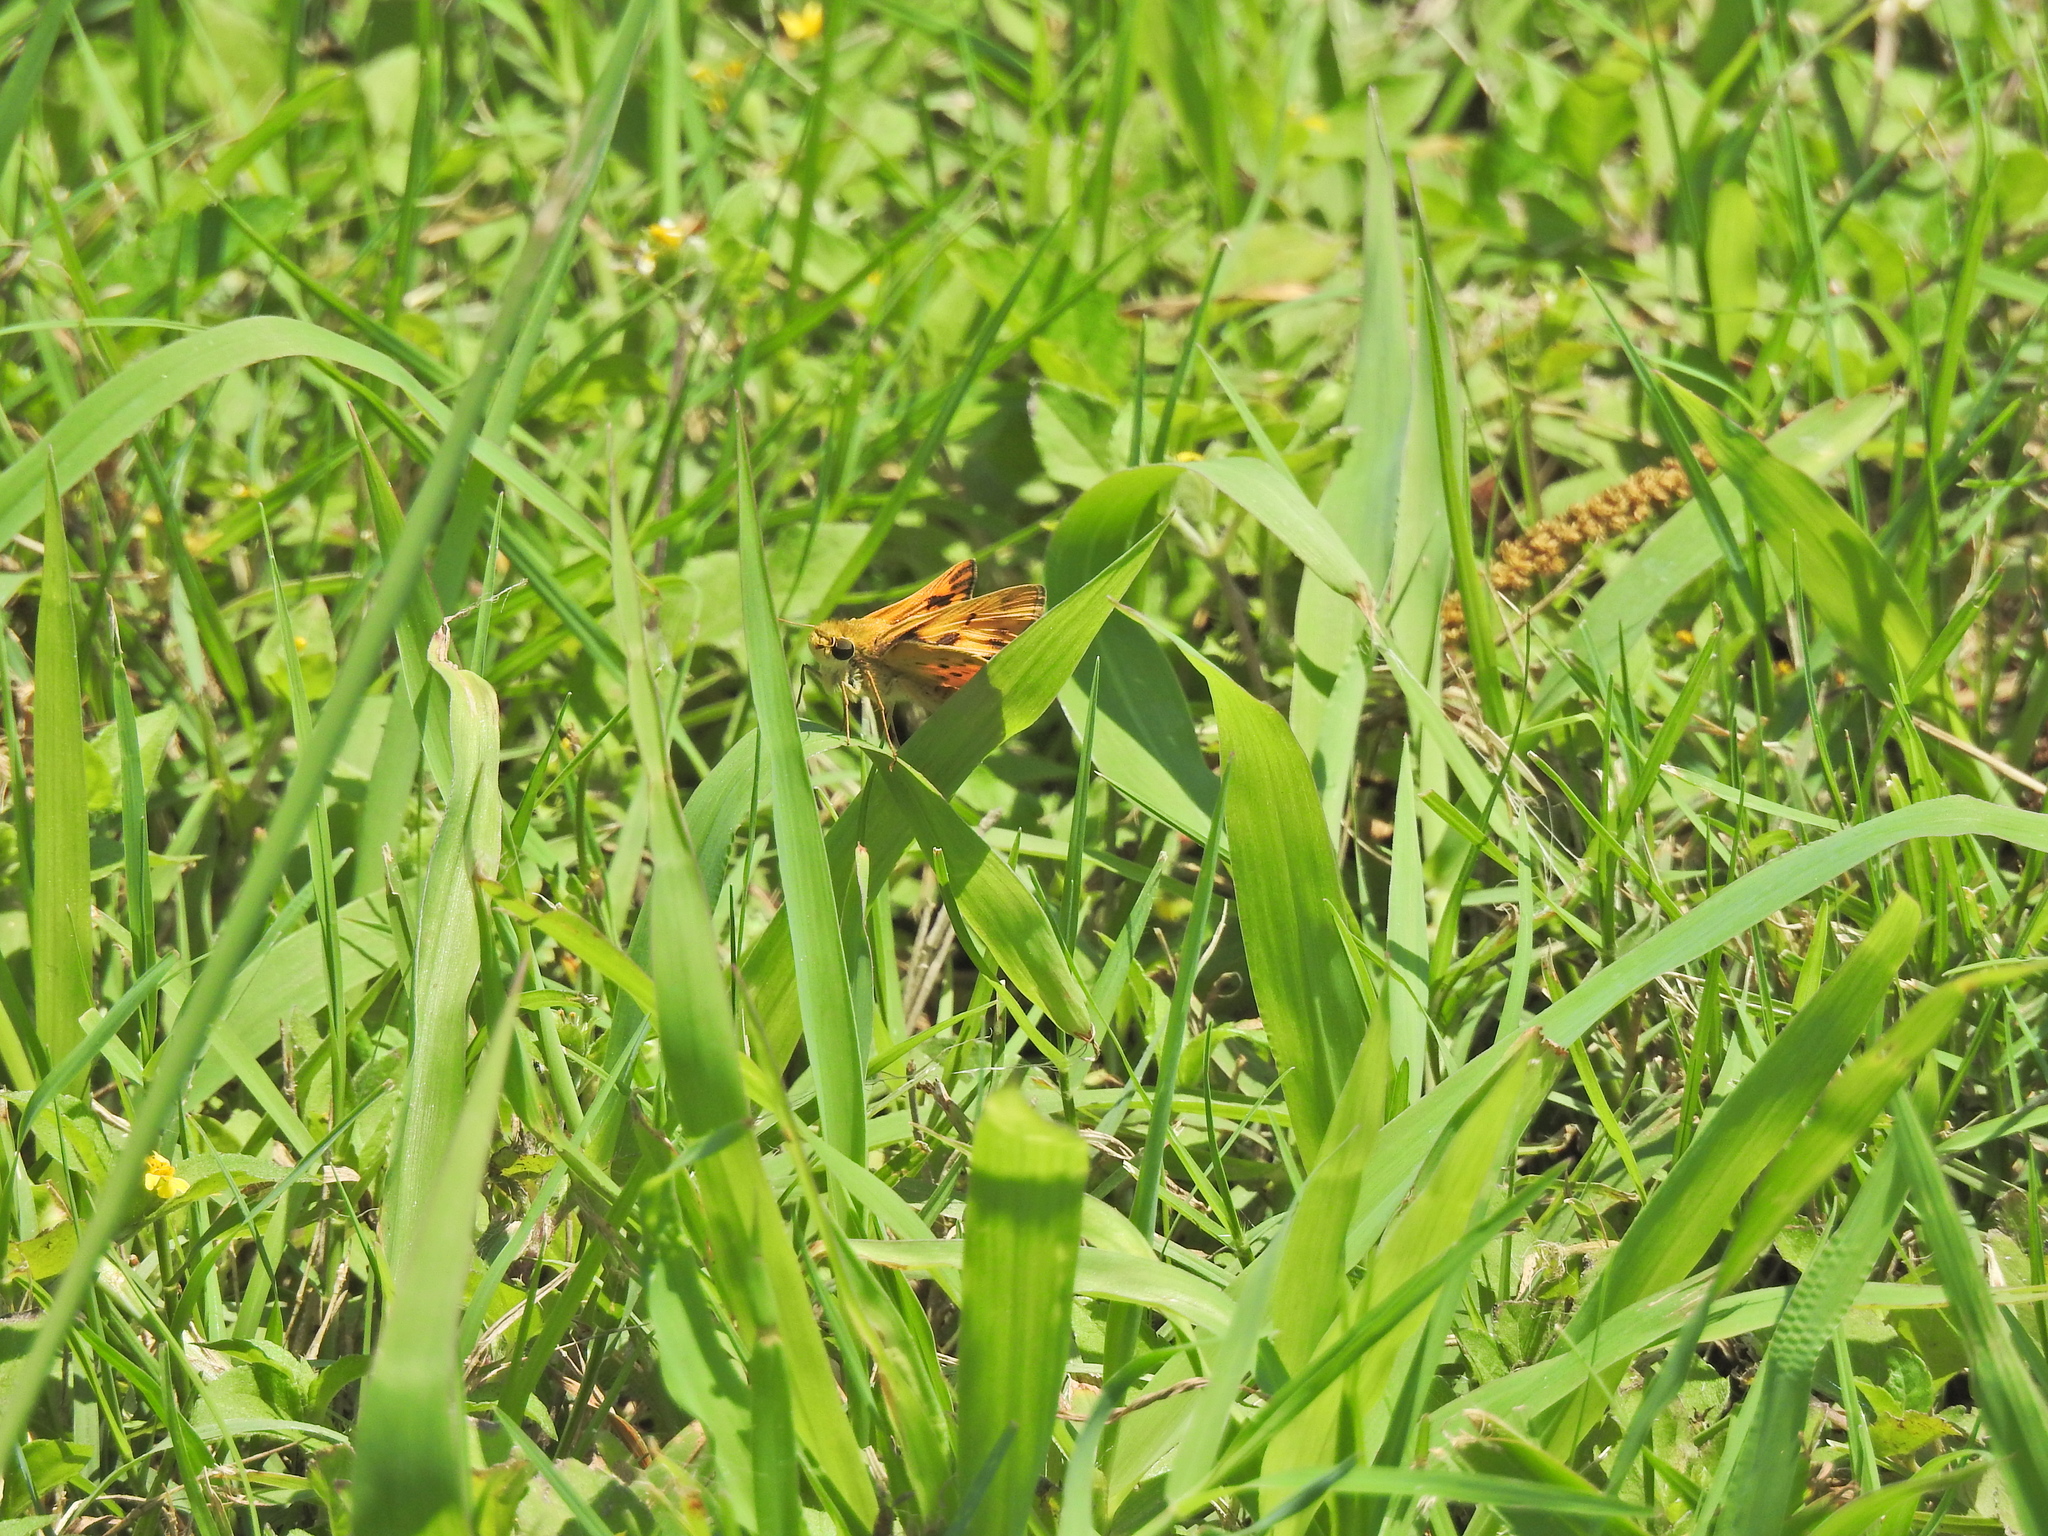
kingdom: Animalia
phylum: Arthropoda
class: Insecta
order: Lepidoptera
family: Hesperiidae
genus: Hylephila
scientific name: Hylephila phyleus
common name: Fiery skipper
